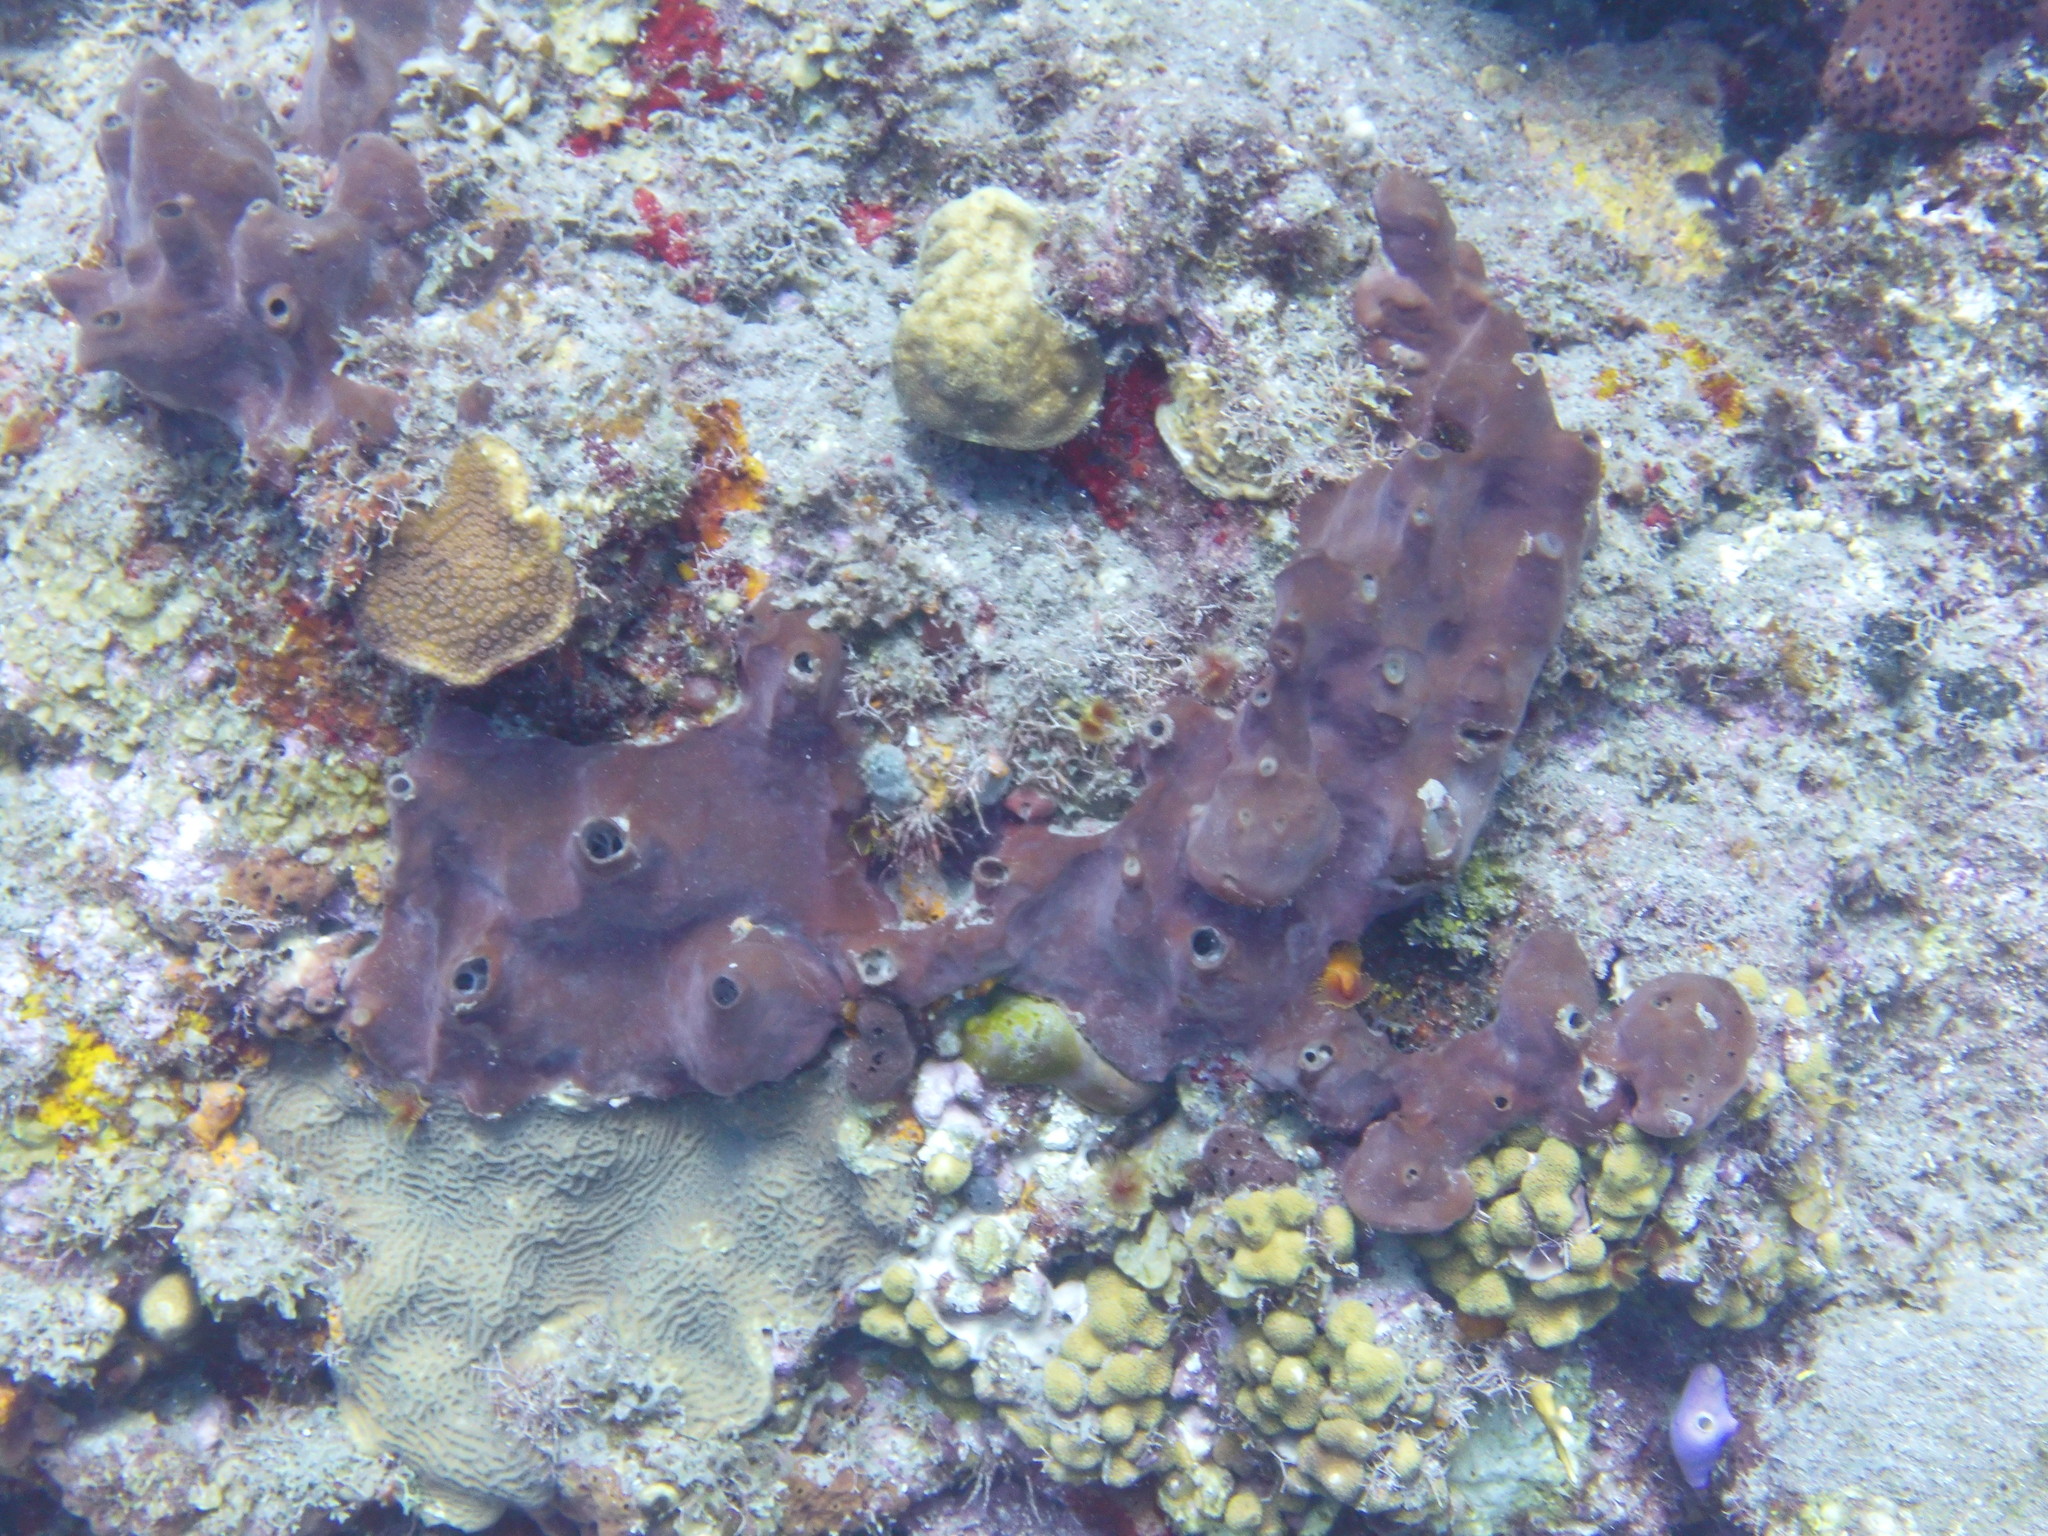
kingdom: Animalia
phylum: Porifera
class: Demospongiae
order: Scopalinida
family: Scopalinidae
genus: Svenzea
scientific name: Svenzea zeai
